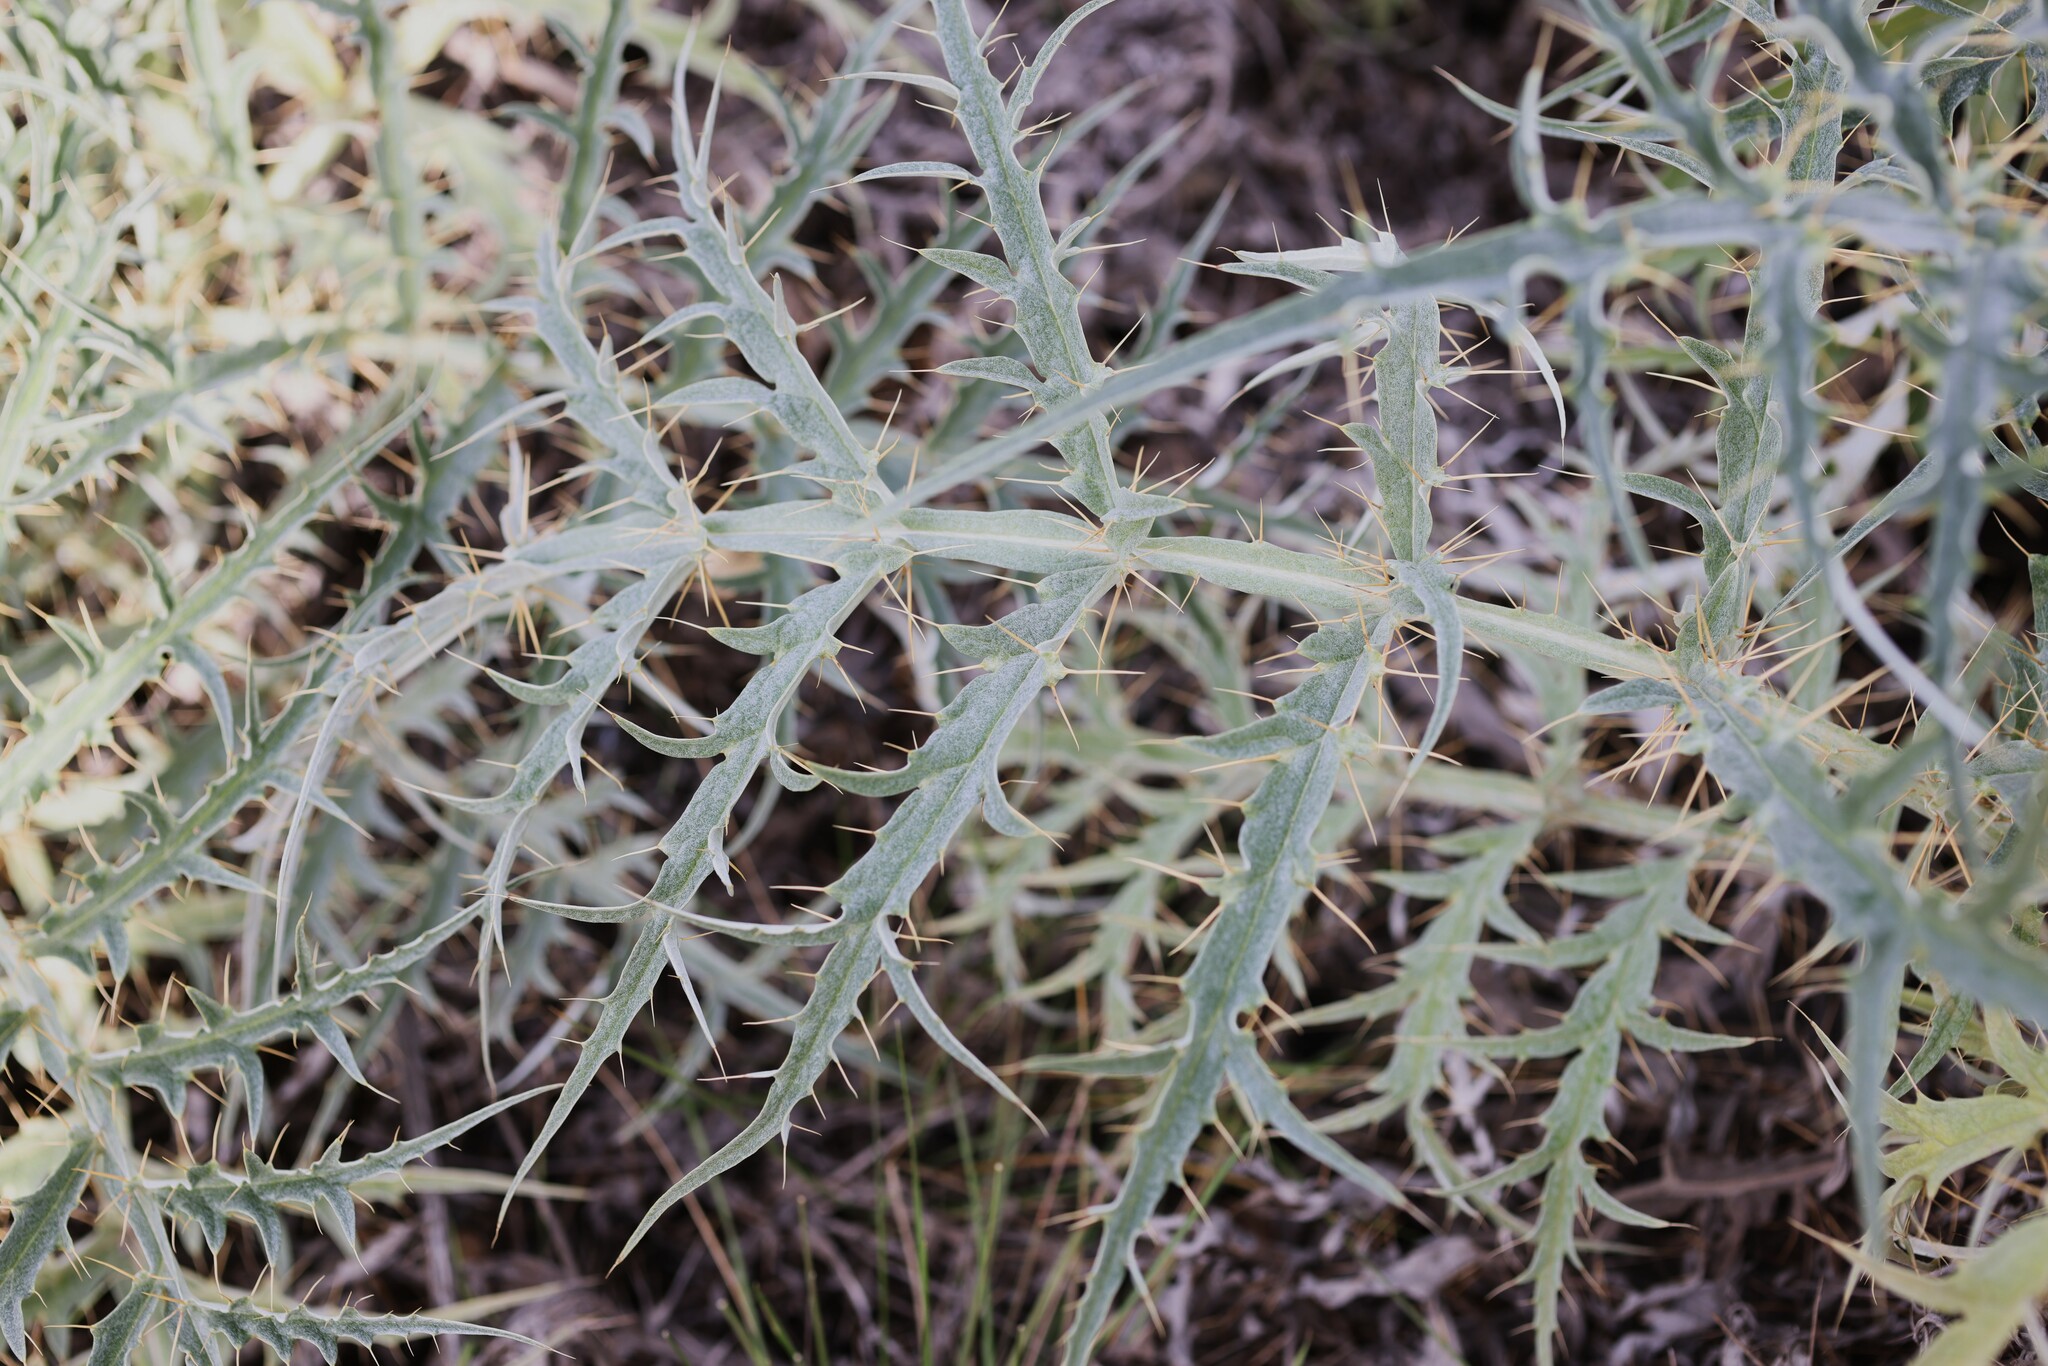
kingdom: Plantae
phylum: Tracheophyta
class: Magnoliopsida
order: Asterales
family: Asteraceae
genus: Cynara
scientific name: Cynara cardunculus
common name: Globe artichoke
